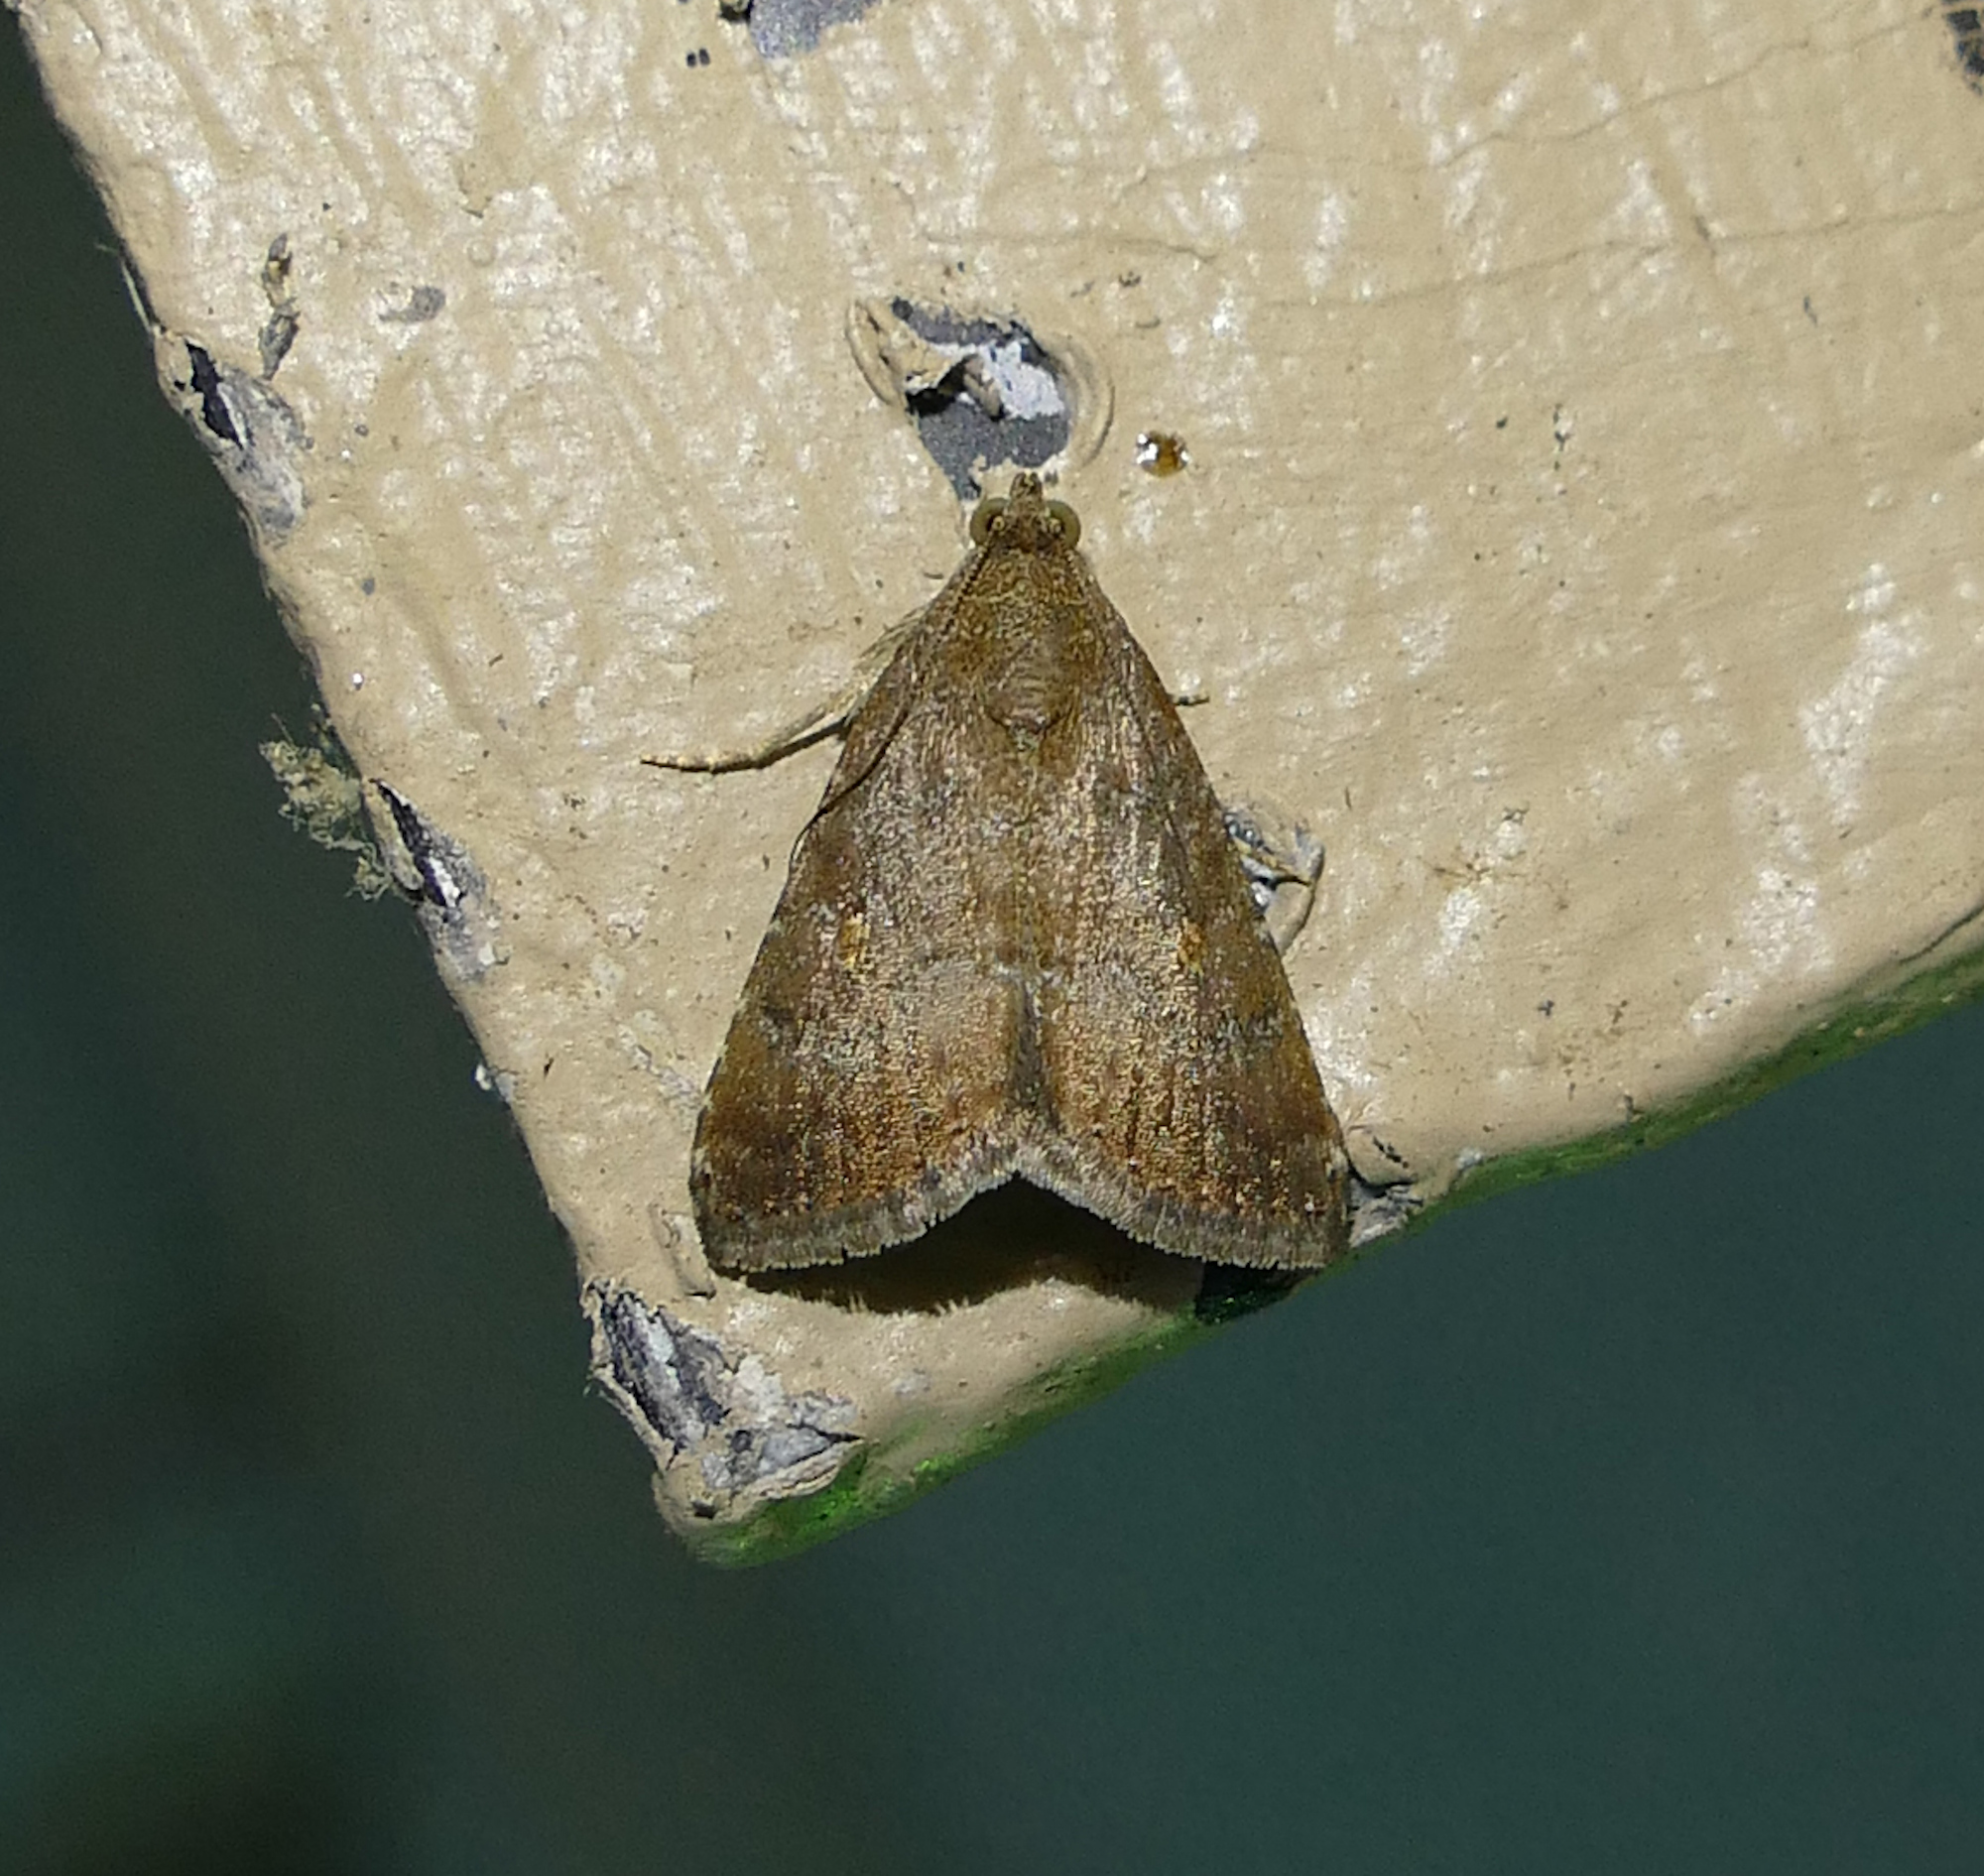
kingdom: Animalia
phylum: Arthropoda
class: Insecta
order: Lepidoptera
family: Noctuidae
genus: Amyna
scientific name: Amyna stricta
